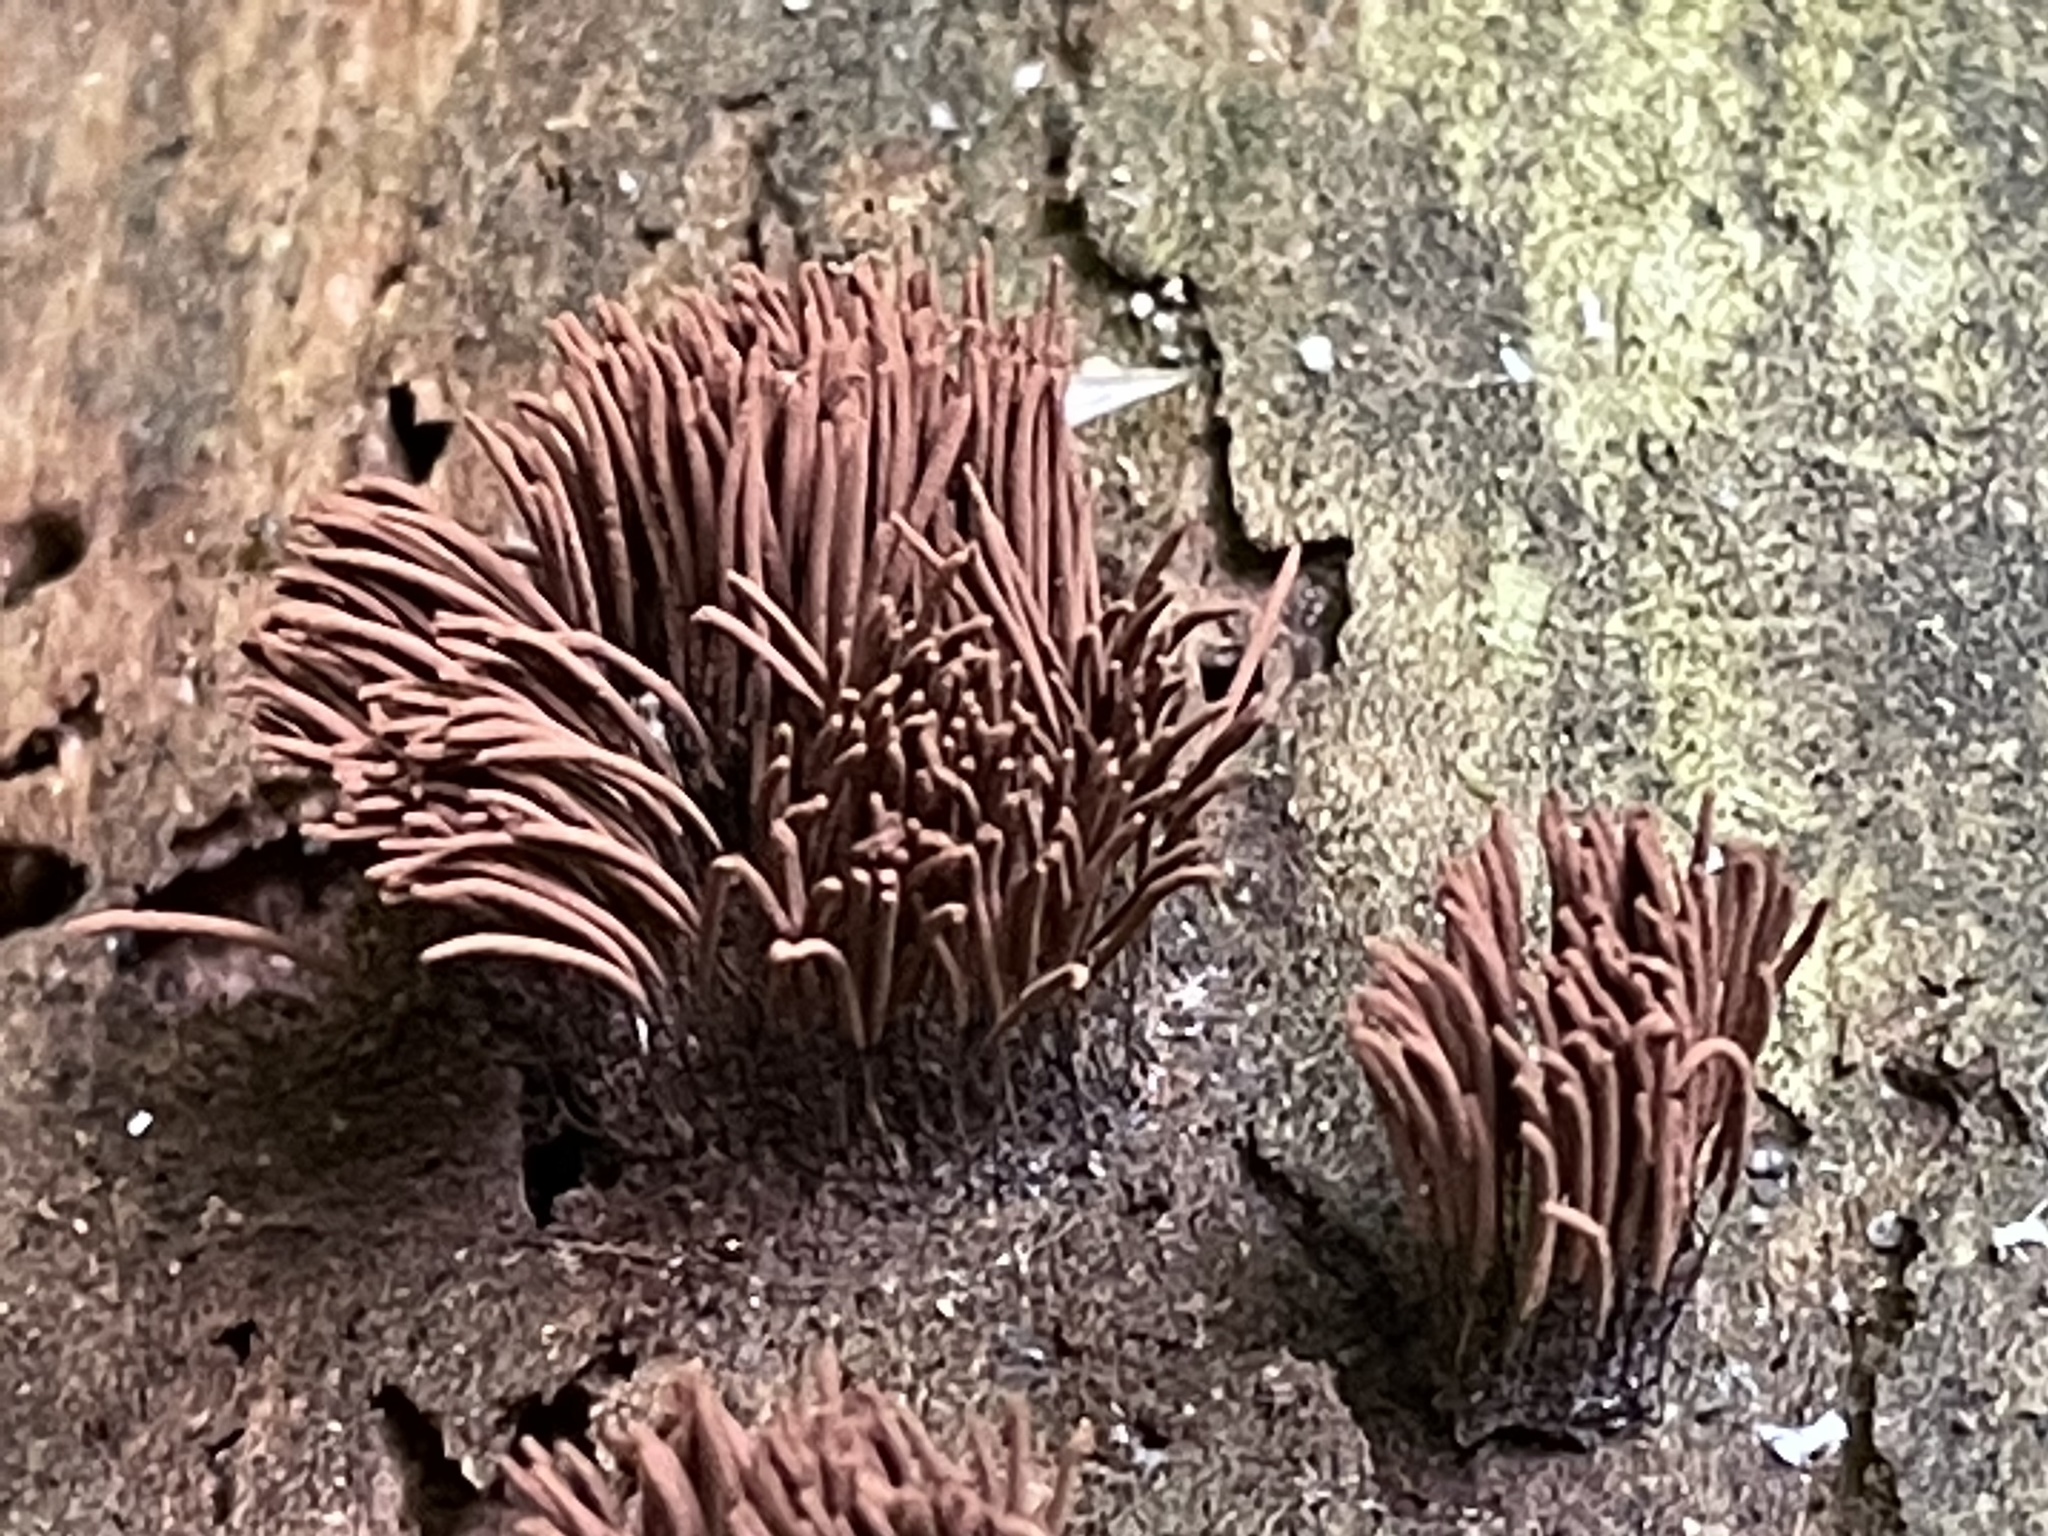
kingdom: Protozoa
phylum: Mycetozoa
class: Myxomycetes
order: Stemonitidales
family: Stemonitidaceae
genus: Stemonitis
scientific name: Stemonitis splendens
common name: Chocolate tube slime
